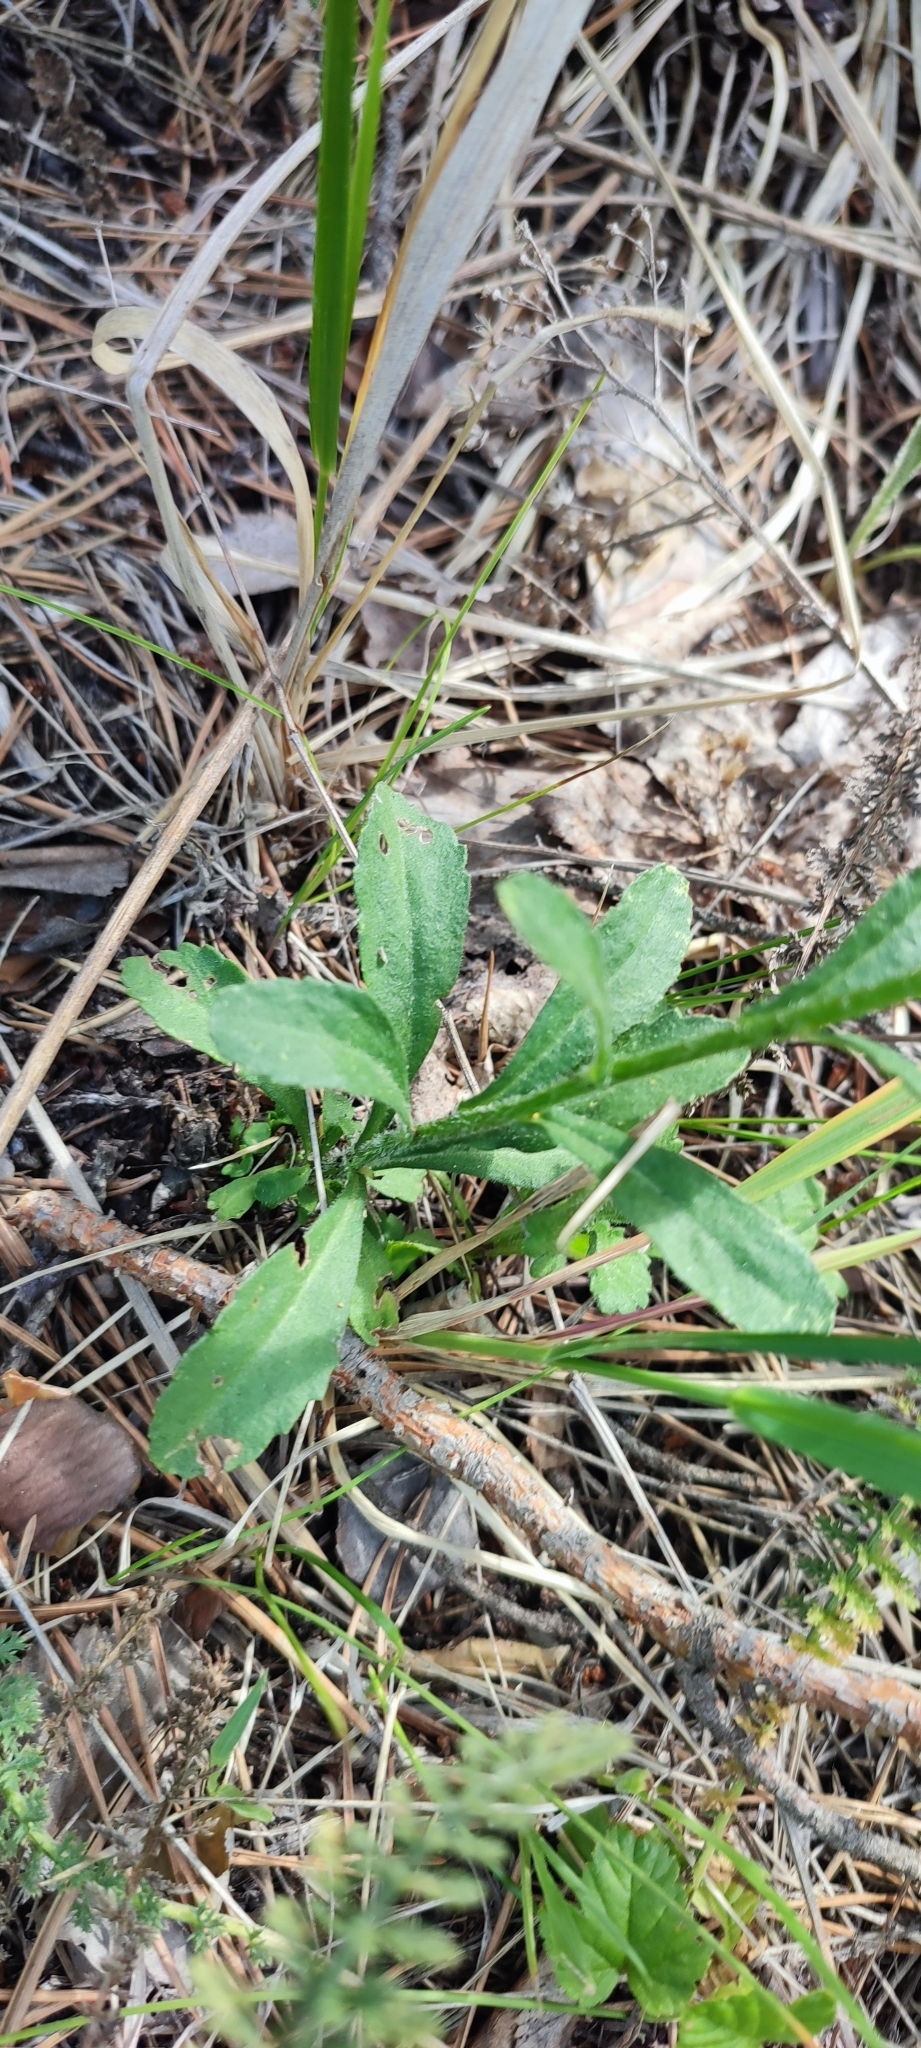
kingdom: Plantae
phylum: Tracheophyta
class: Magnoliopsida
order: Asterales
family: Asteraceae
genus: Leucanthemum
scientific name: Leucanthemum ircutianum
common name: Daisy
